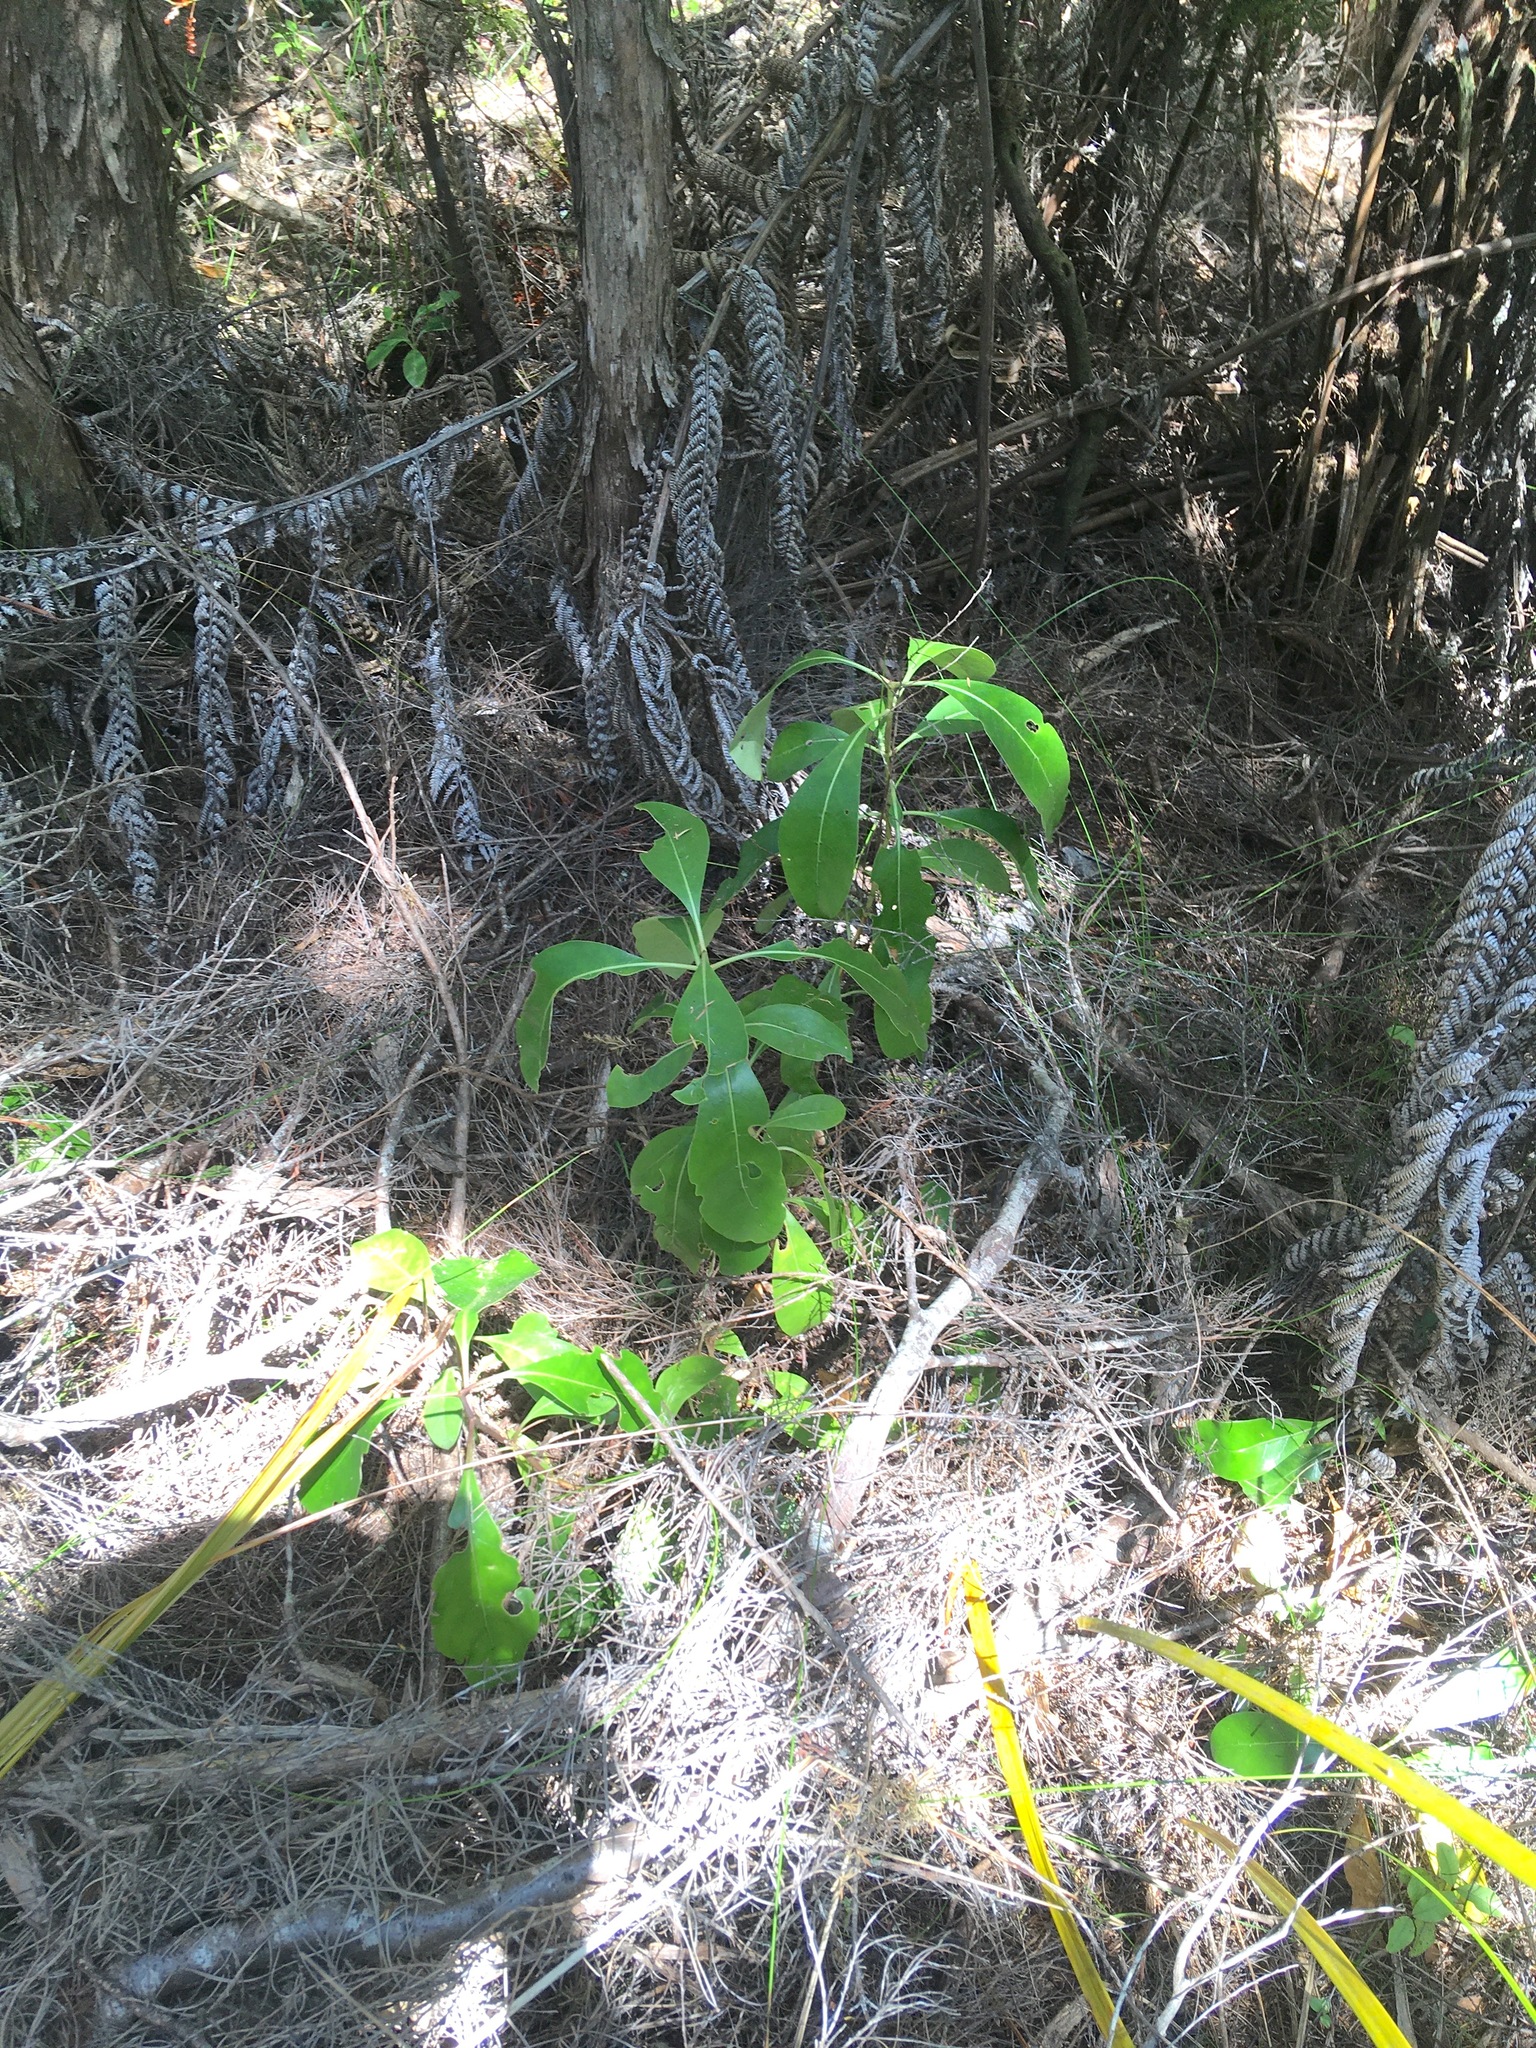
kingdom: Plantae
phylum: Tracheophyta
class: Magnoliopsida
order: Gentianales
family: Rubiaceae
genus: Coprosma
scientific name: Coprosma lucida
